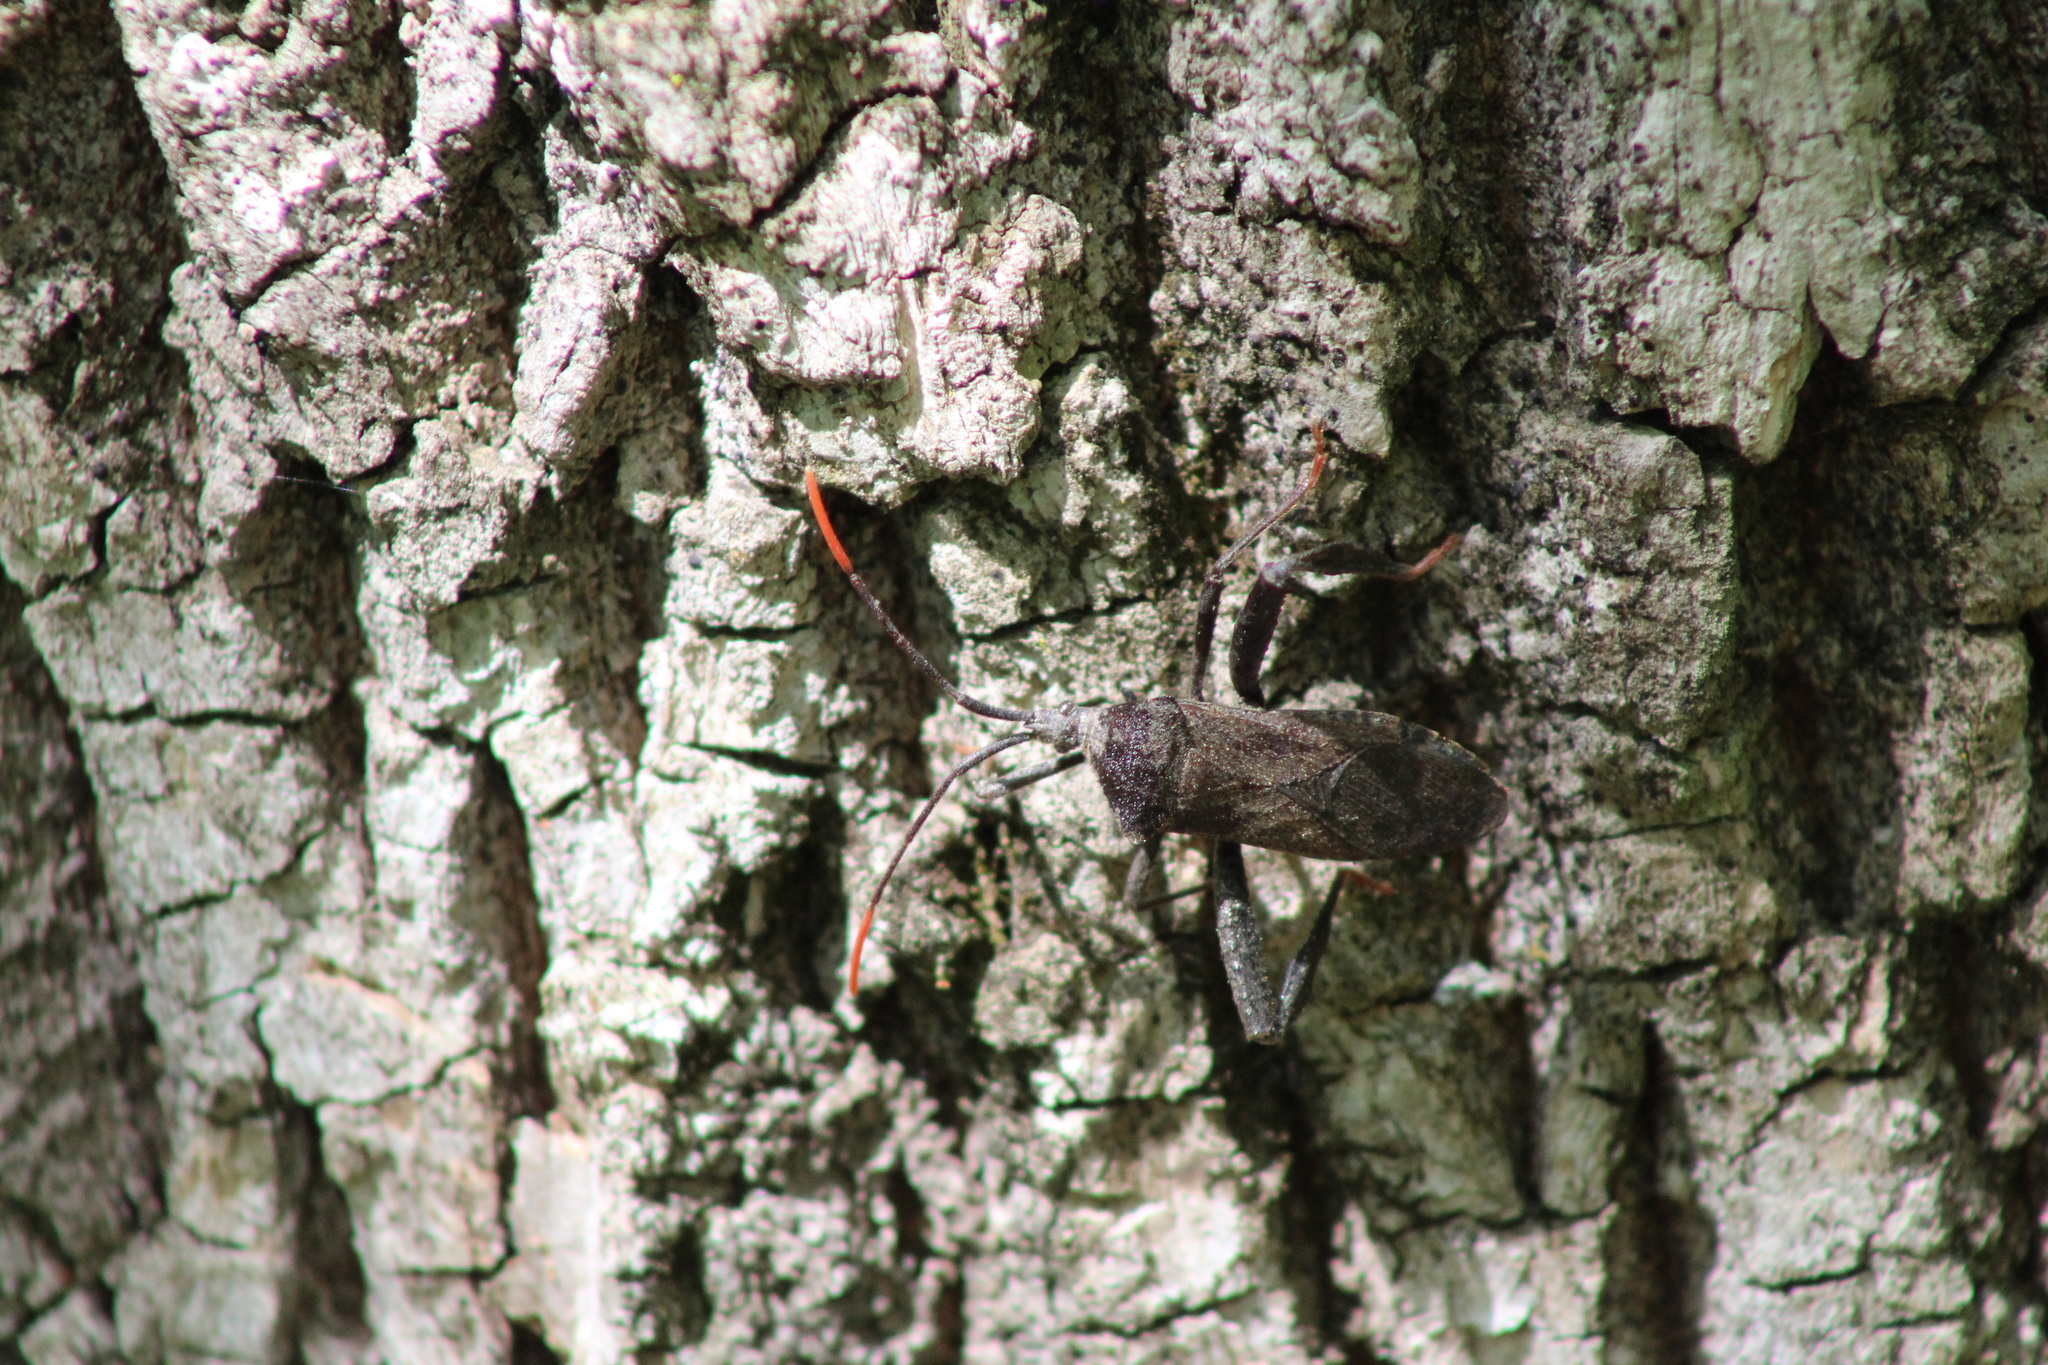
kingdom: Animalia
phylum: Arthropoda
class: Insecta
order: Hemiptera
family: Coreidae
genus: Acanthocephala
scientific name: Acanthocephala terminalis
